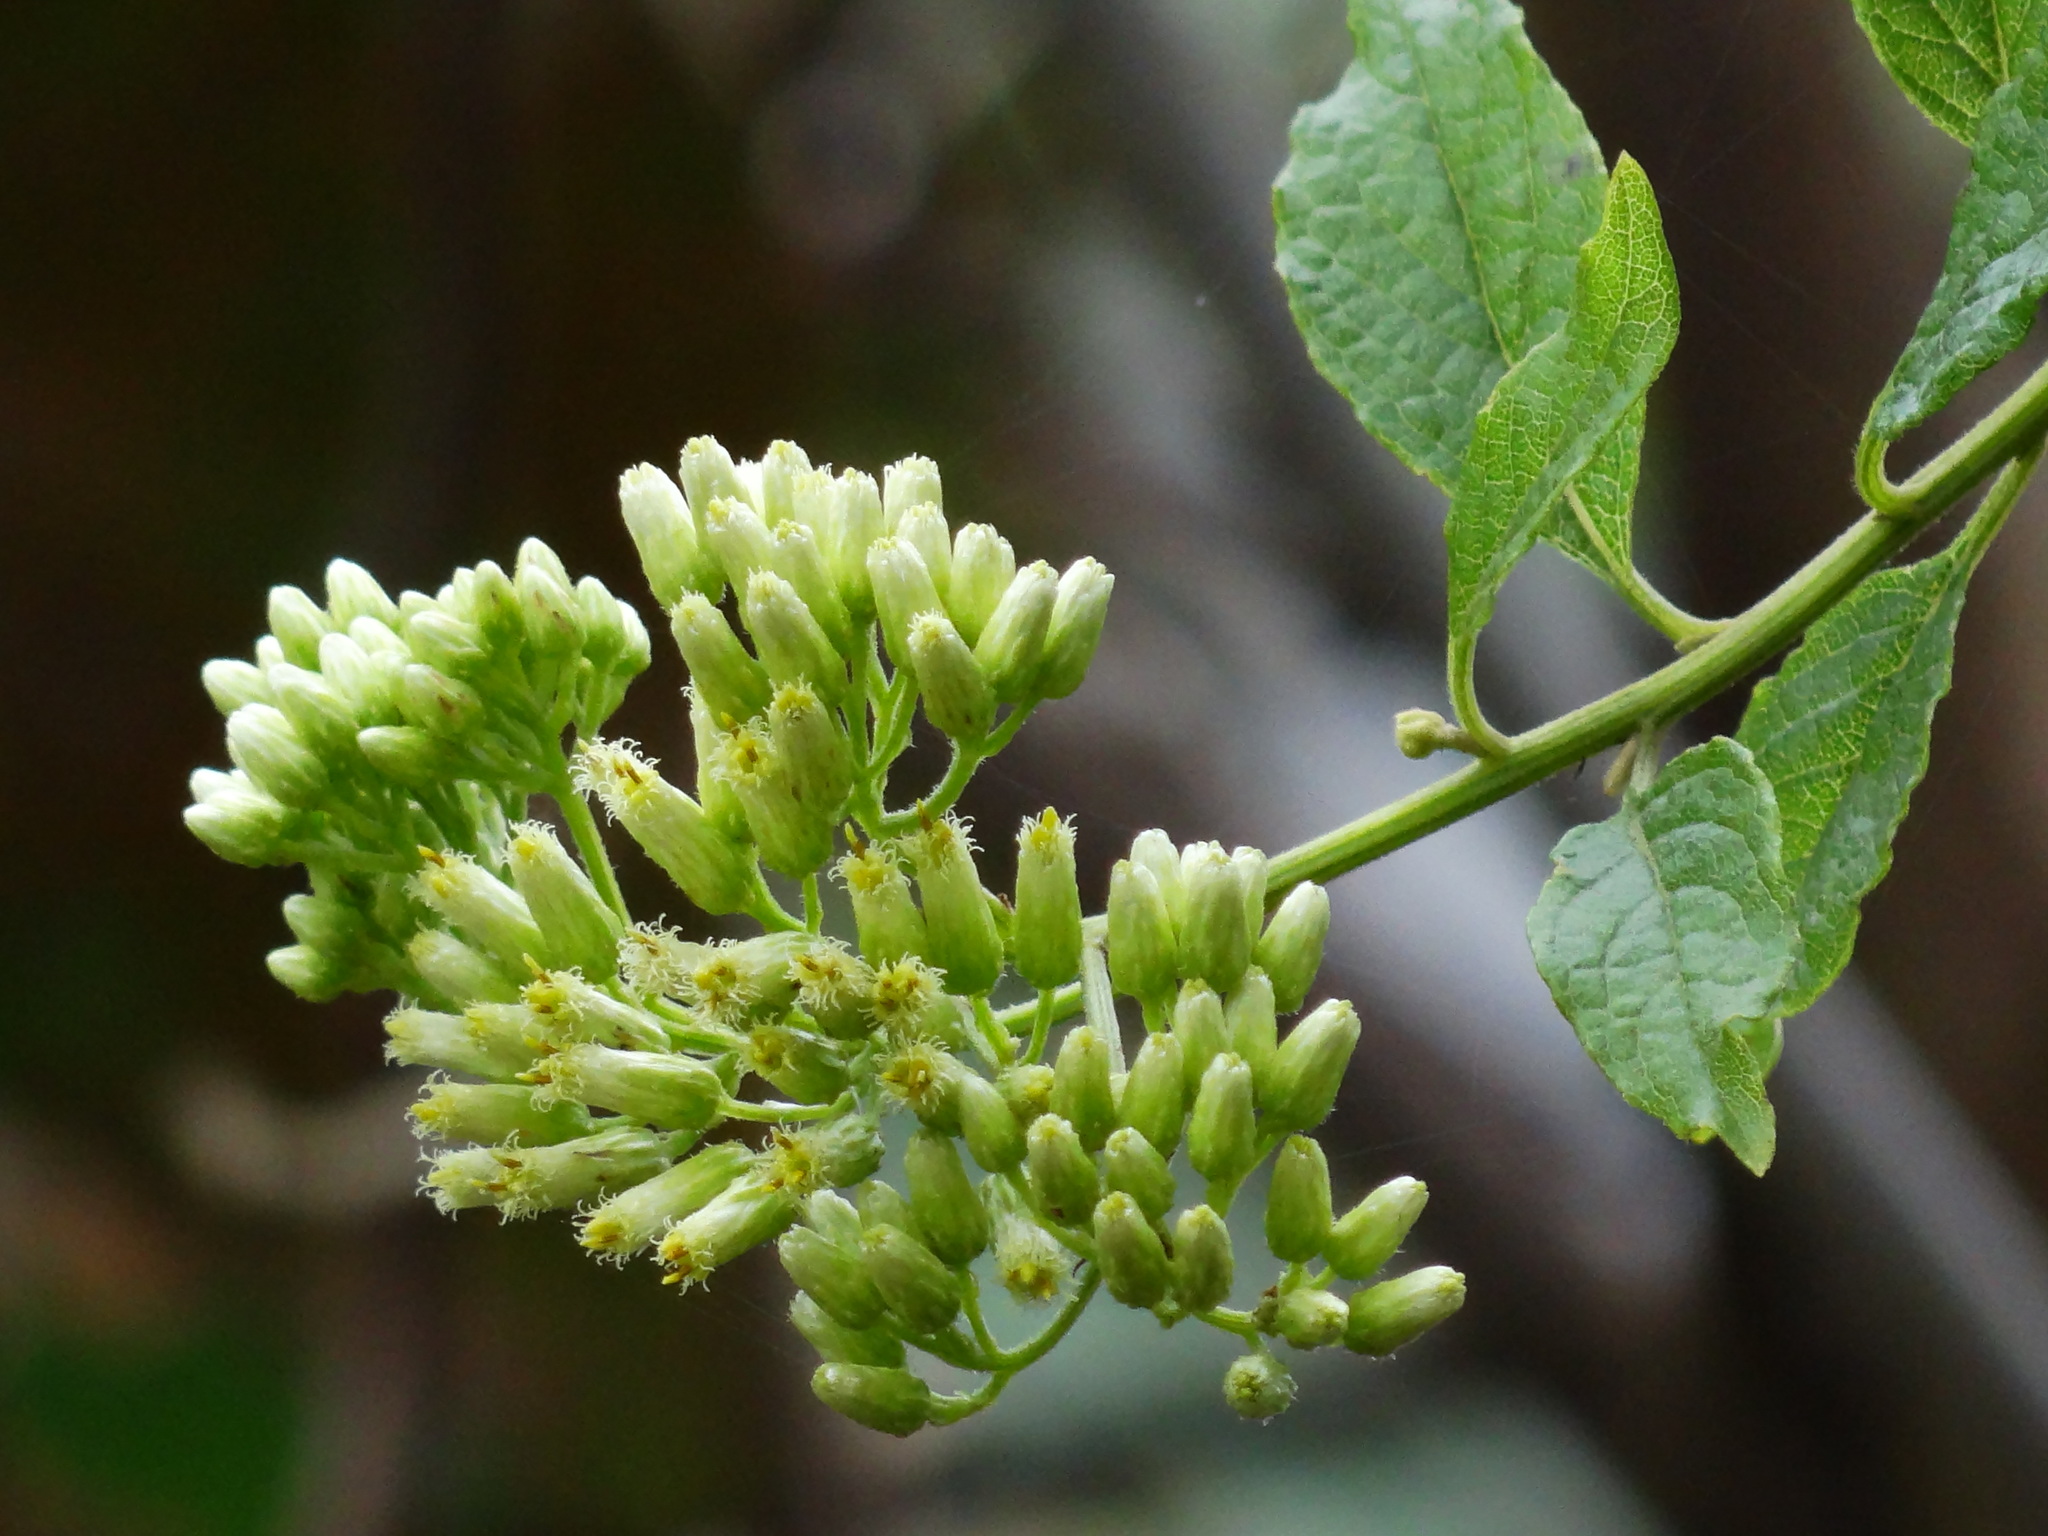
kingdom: Plantae
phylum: Tracheophyta
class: Magnoliopsida
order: Asterales
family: Asteraceae
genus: Microglossa
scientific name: Microglossa pyrifolia
